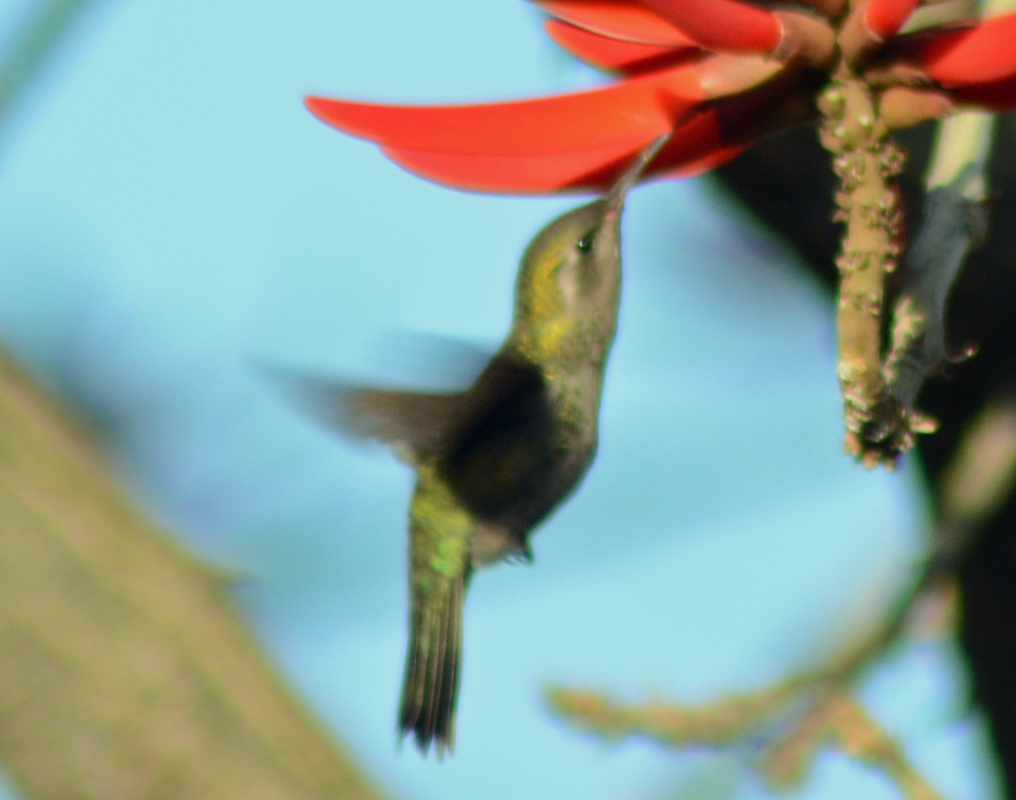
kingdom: Animalia
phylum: Chordata
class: Aves
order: Apodiformes
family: Trochilidae
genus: Cynanthus
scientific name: Cynanthus latirostris
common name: Broad-billed hummingbird
